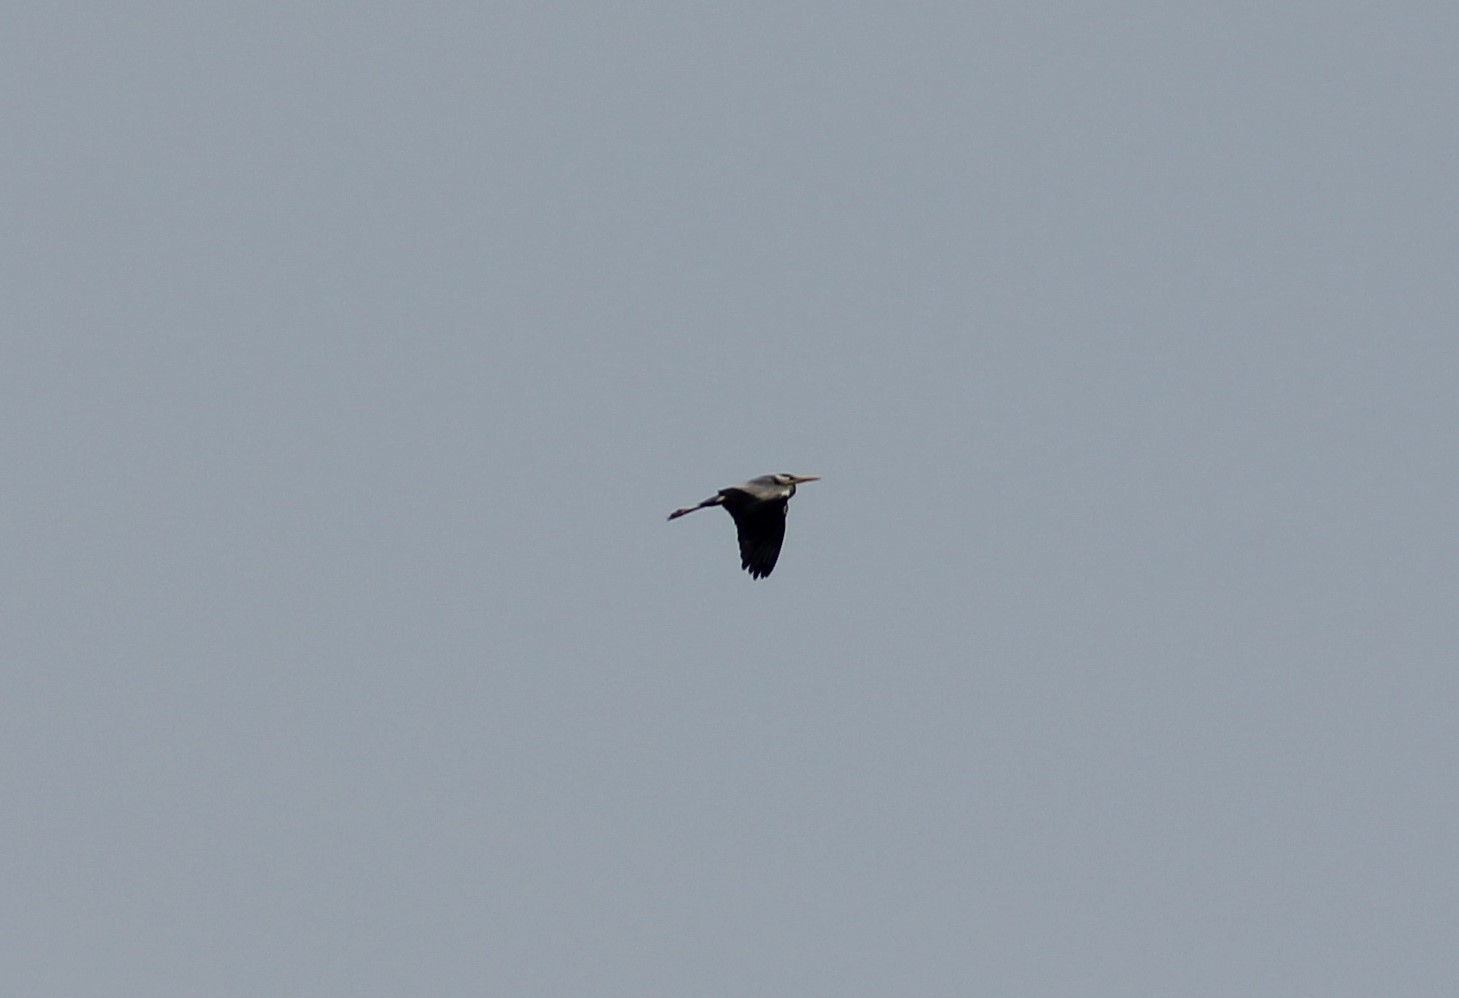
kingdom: Animalia
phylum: Chordata
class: Aves
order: Pelecaniformes
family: Ardeidae
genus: Ardea
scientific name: Ardea cinerea
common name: Grey heron
